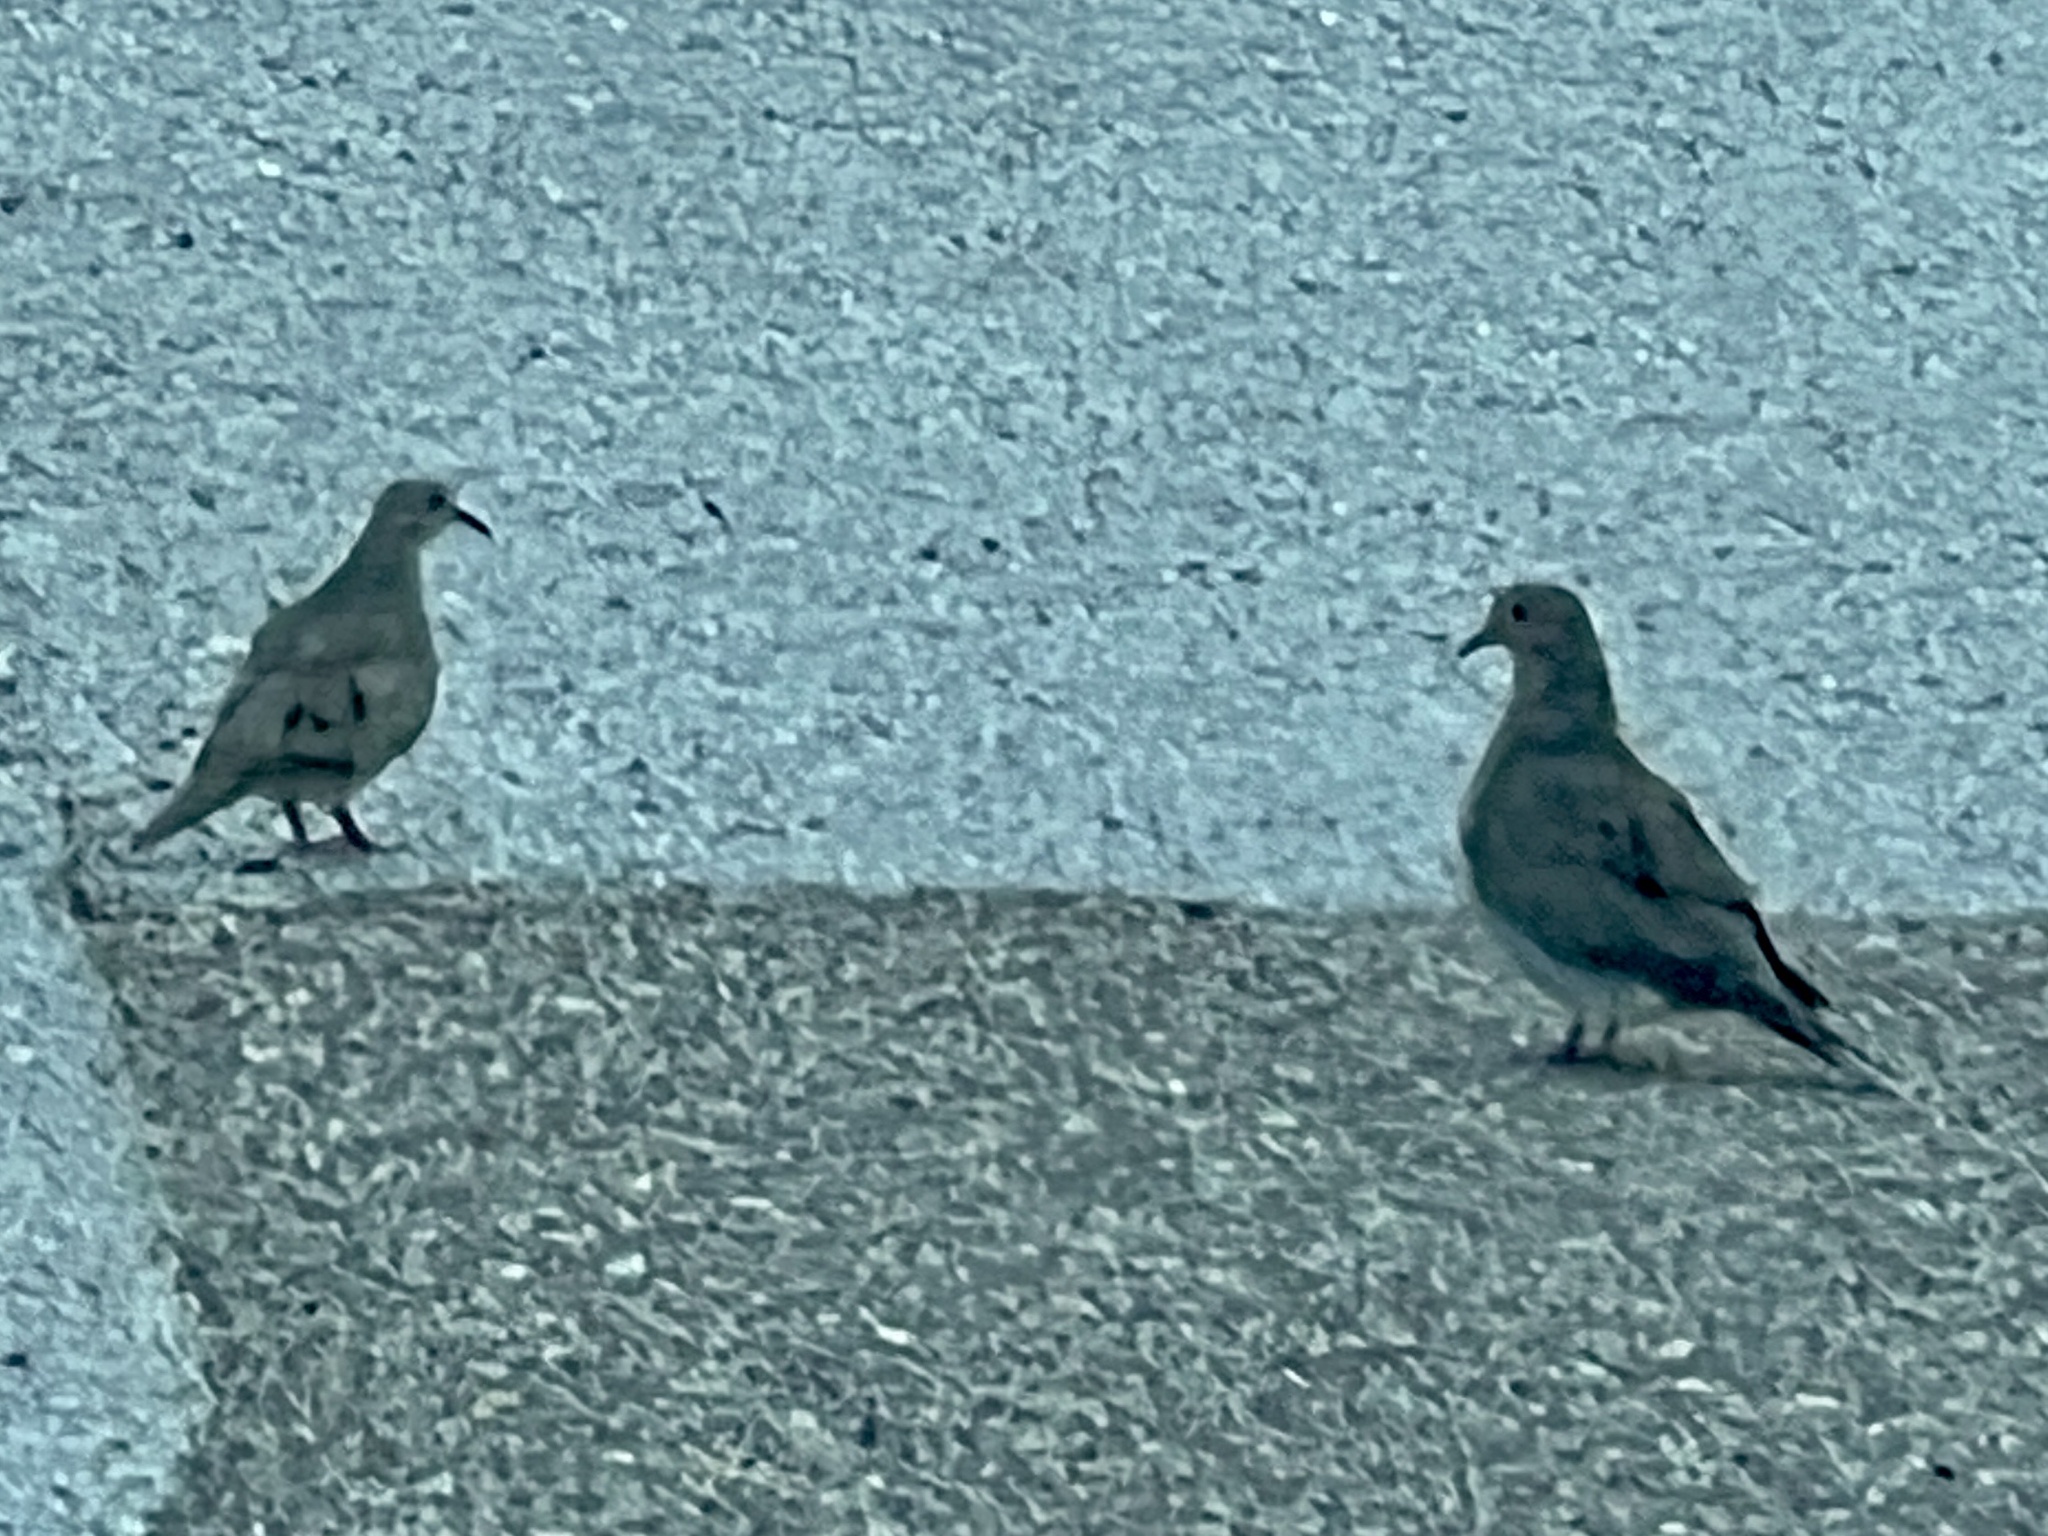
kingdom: Animalia
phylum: Chordata
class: Aves
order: Columbiformes
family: Columbidae
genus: Zenaida
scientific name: Zenaida macroura
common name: Mourning dove
